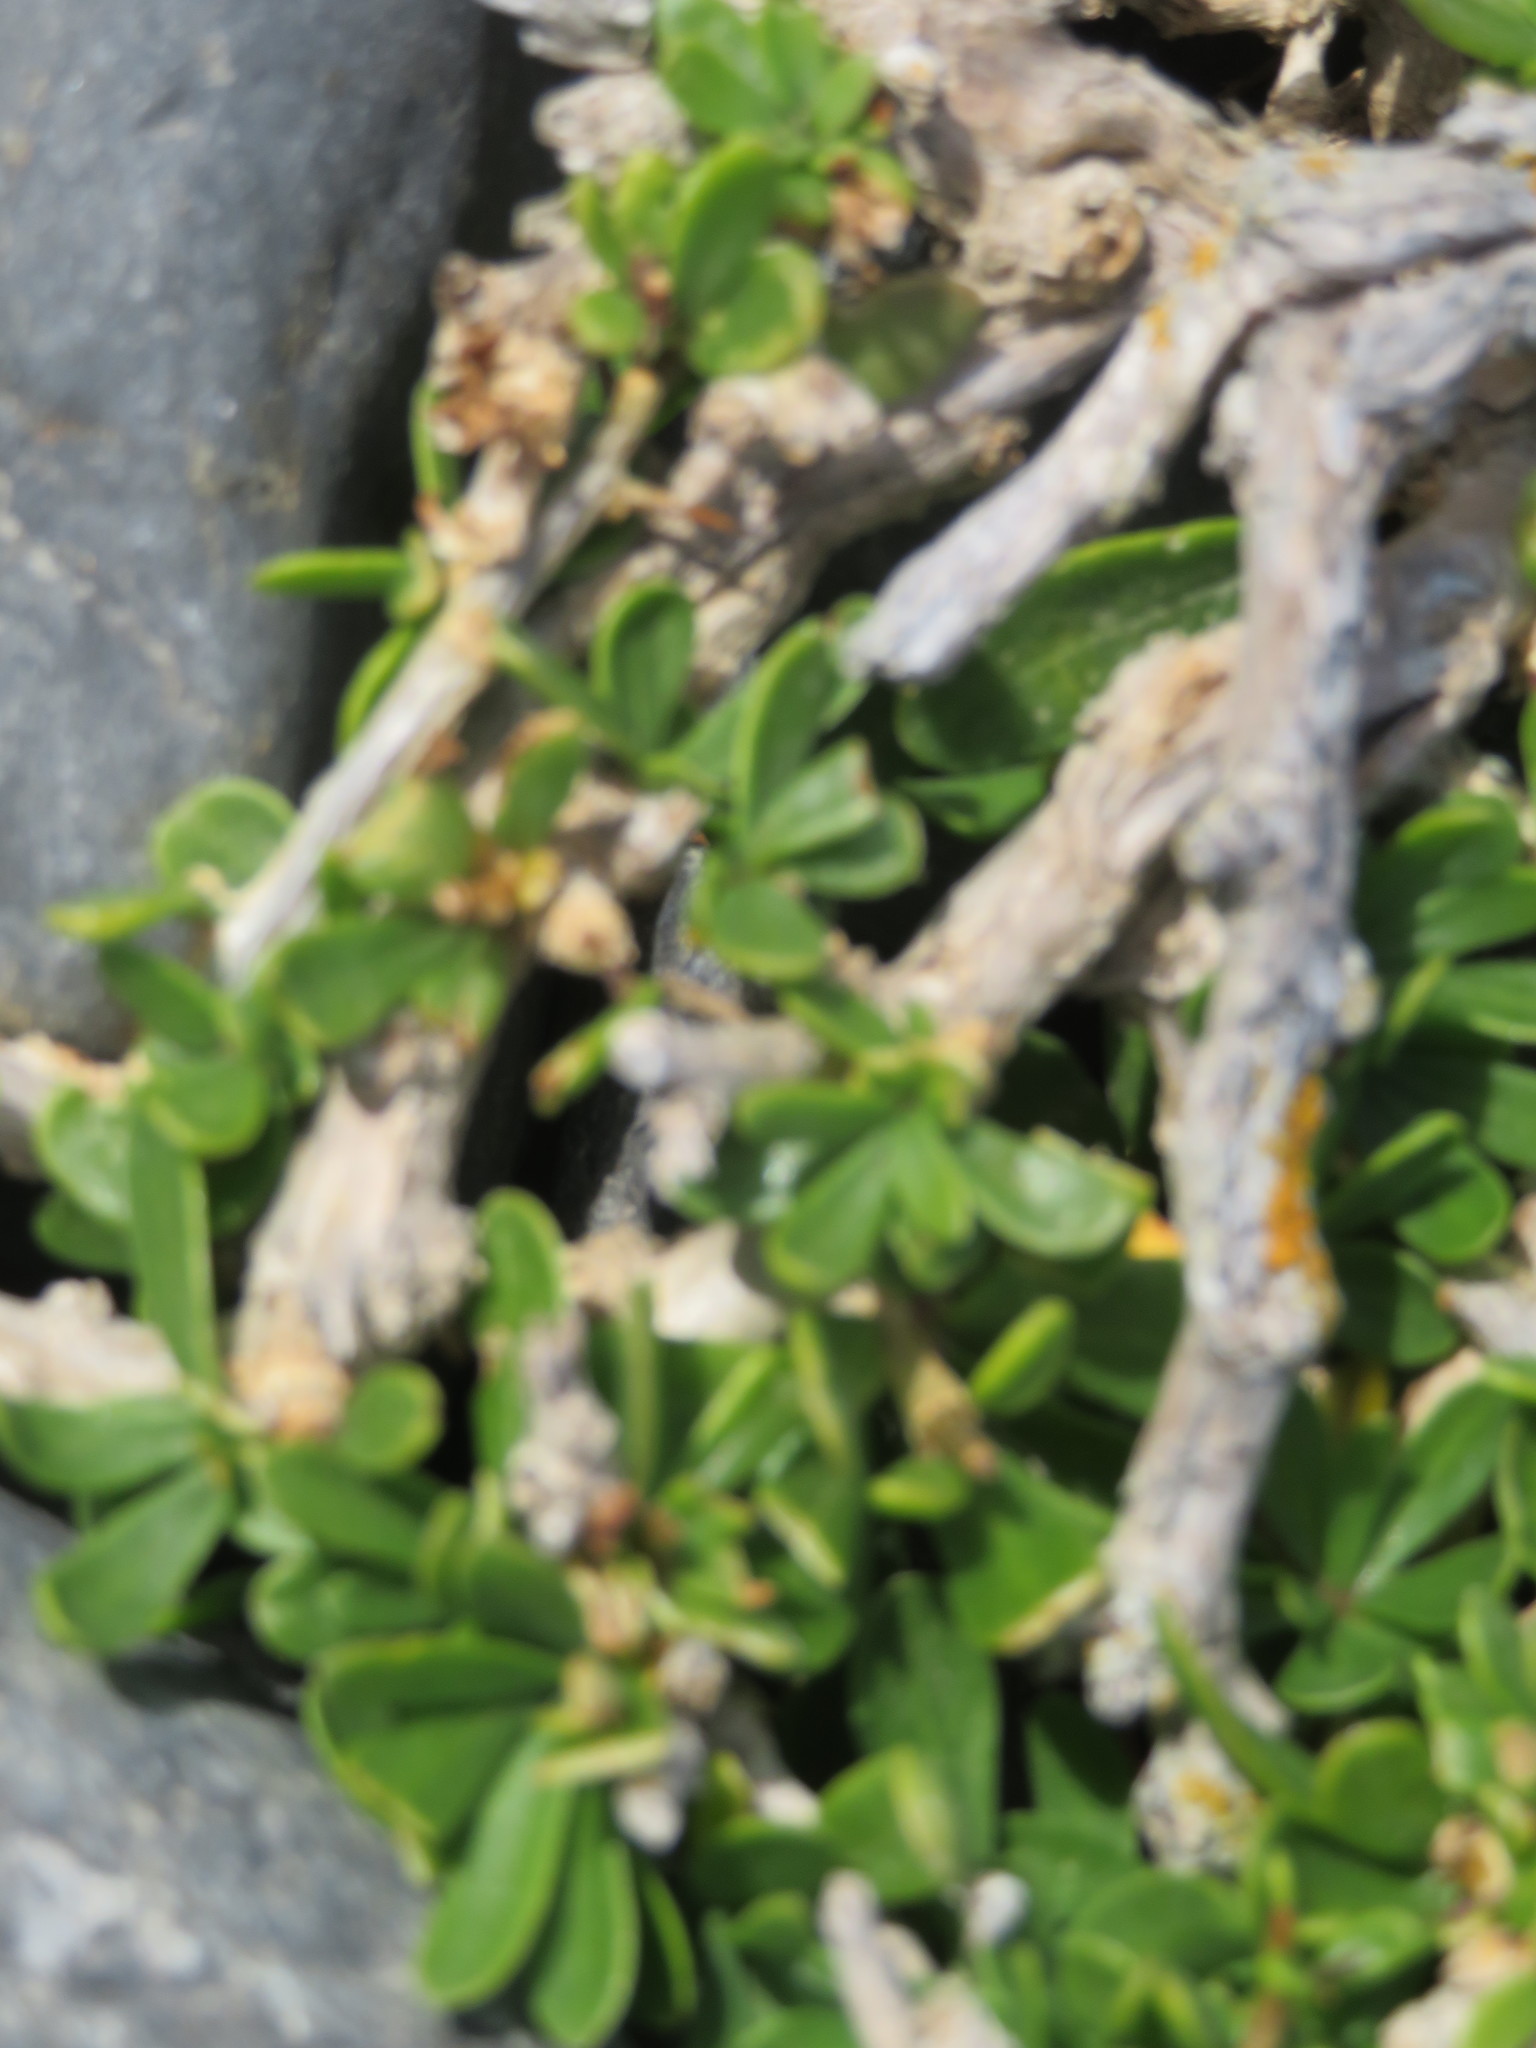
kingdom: Plantae
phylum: Tracheophyta
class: Magnoliopsida
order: Malpighiales
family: Violaceae
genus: Melicytus
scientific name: Melicytus crassifolius
